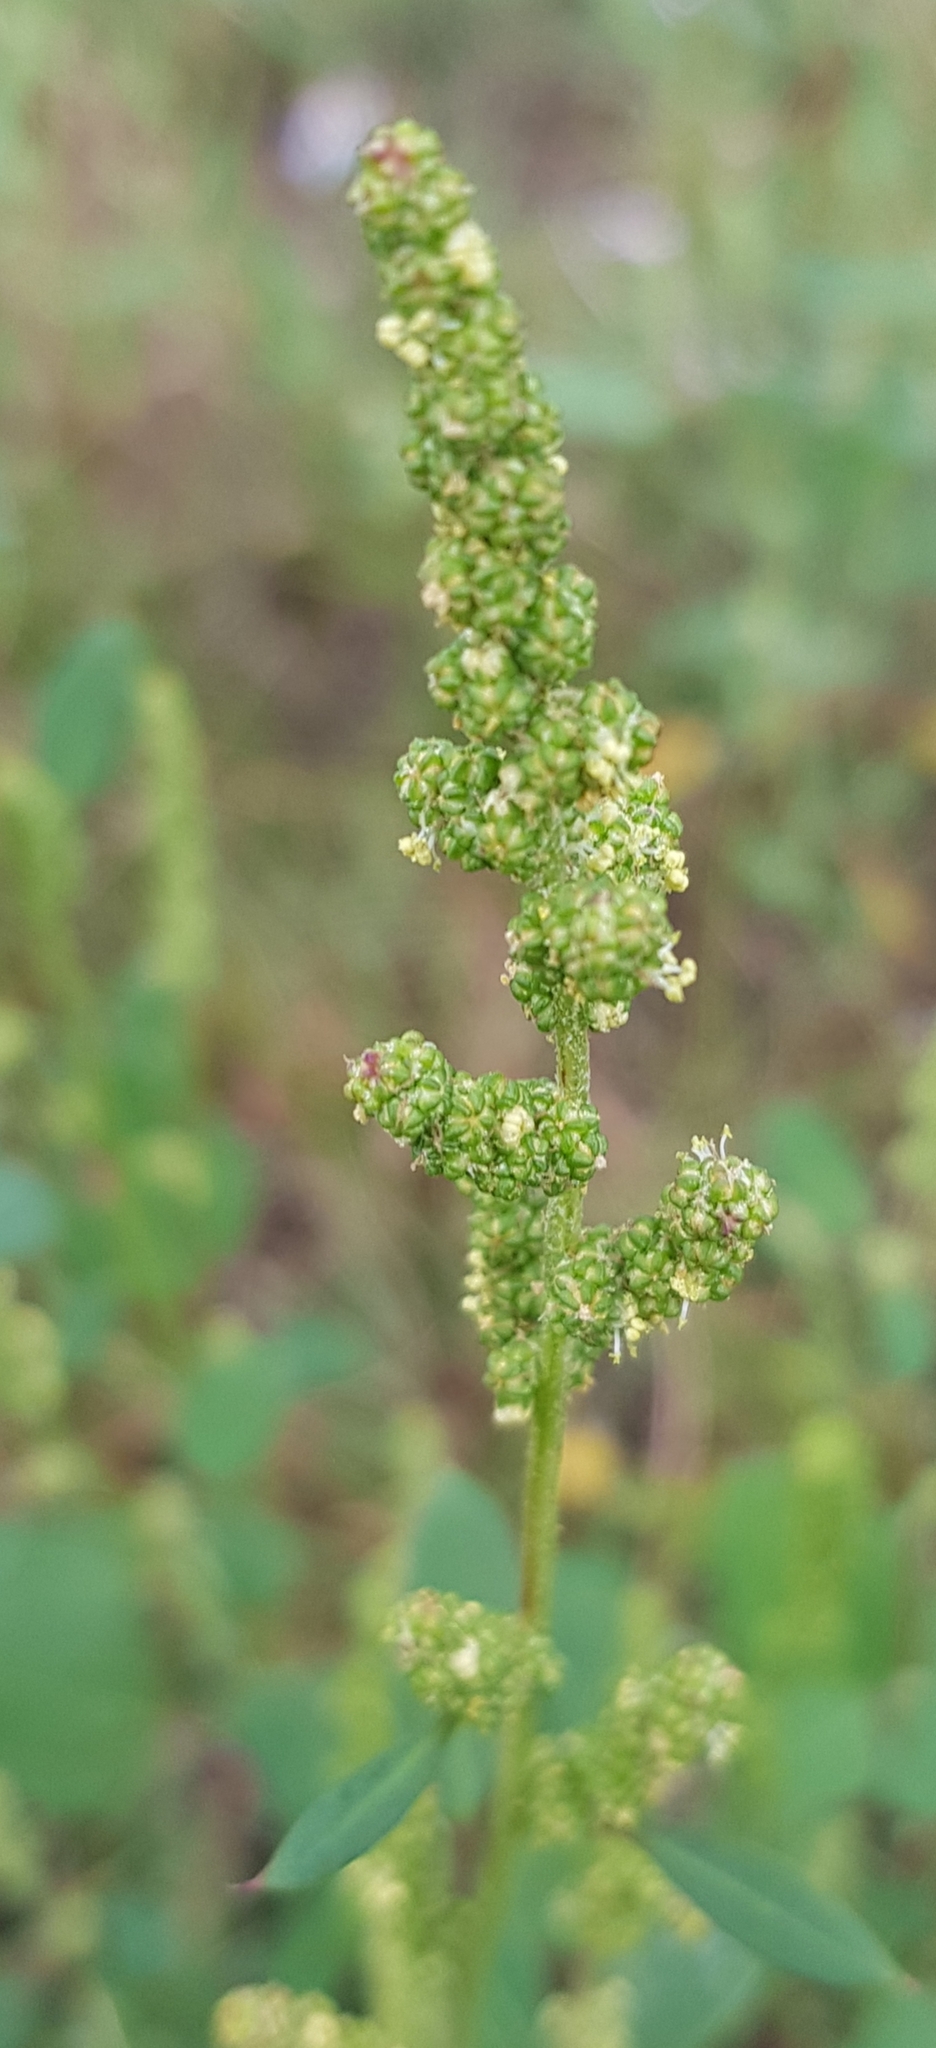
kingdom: Plantae
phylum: Tracheophyta
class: Magnoliopsida
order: Caryophyllales
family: Amaranthaceae
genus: Chenopodium
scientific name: Chenopodium acuminatum
